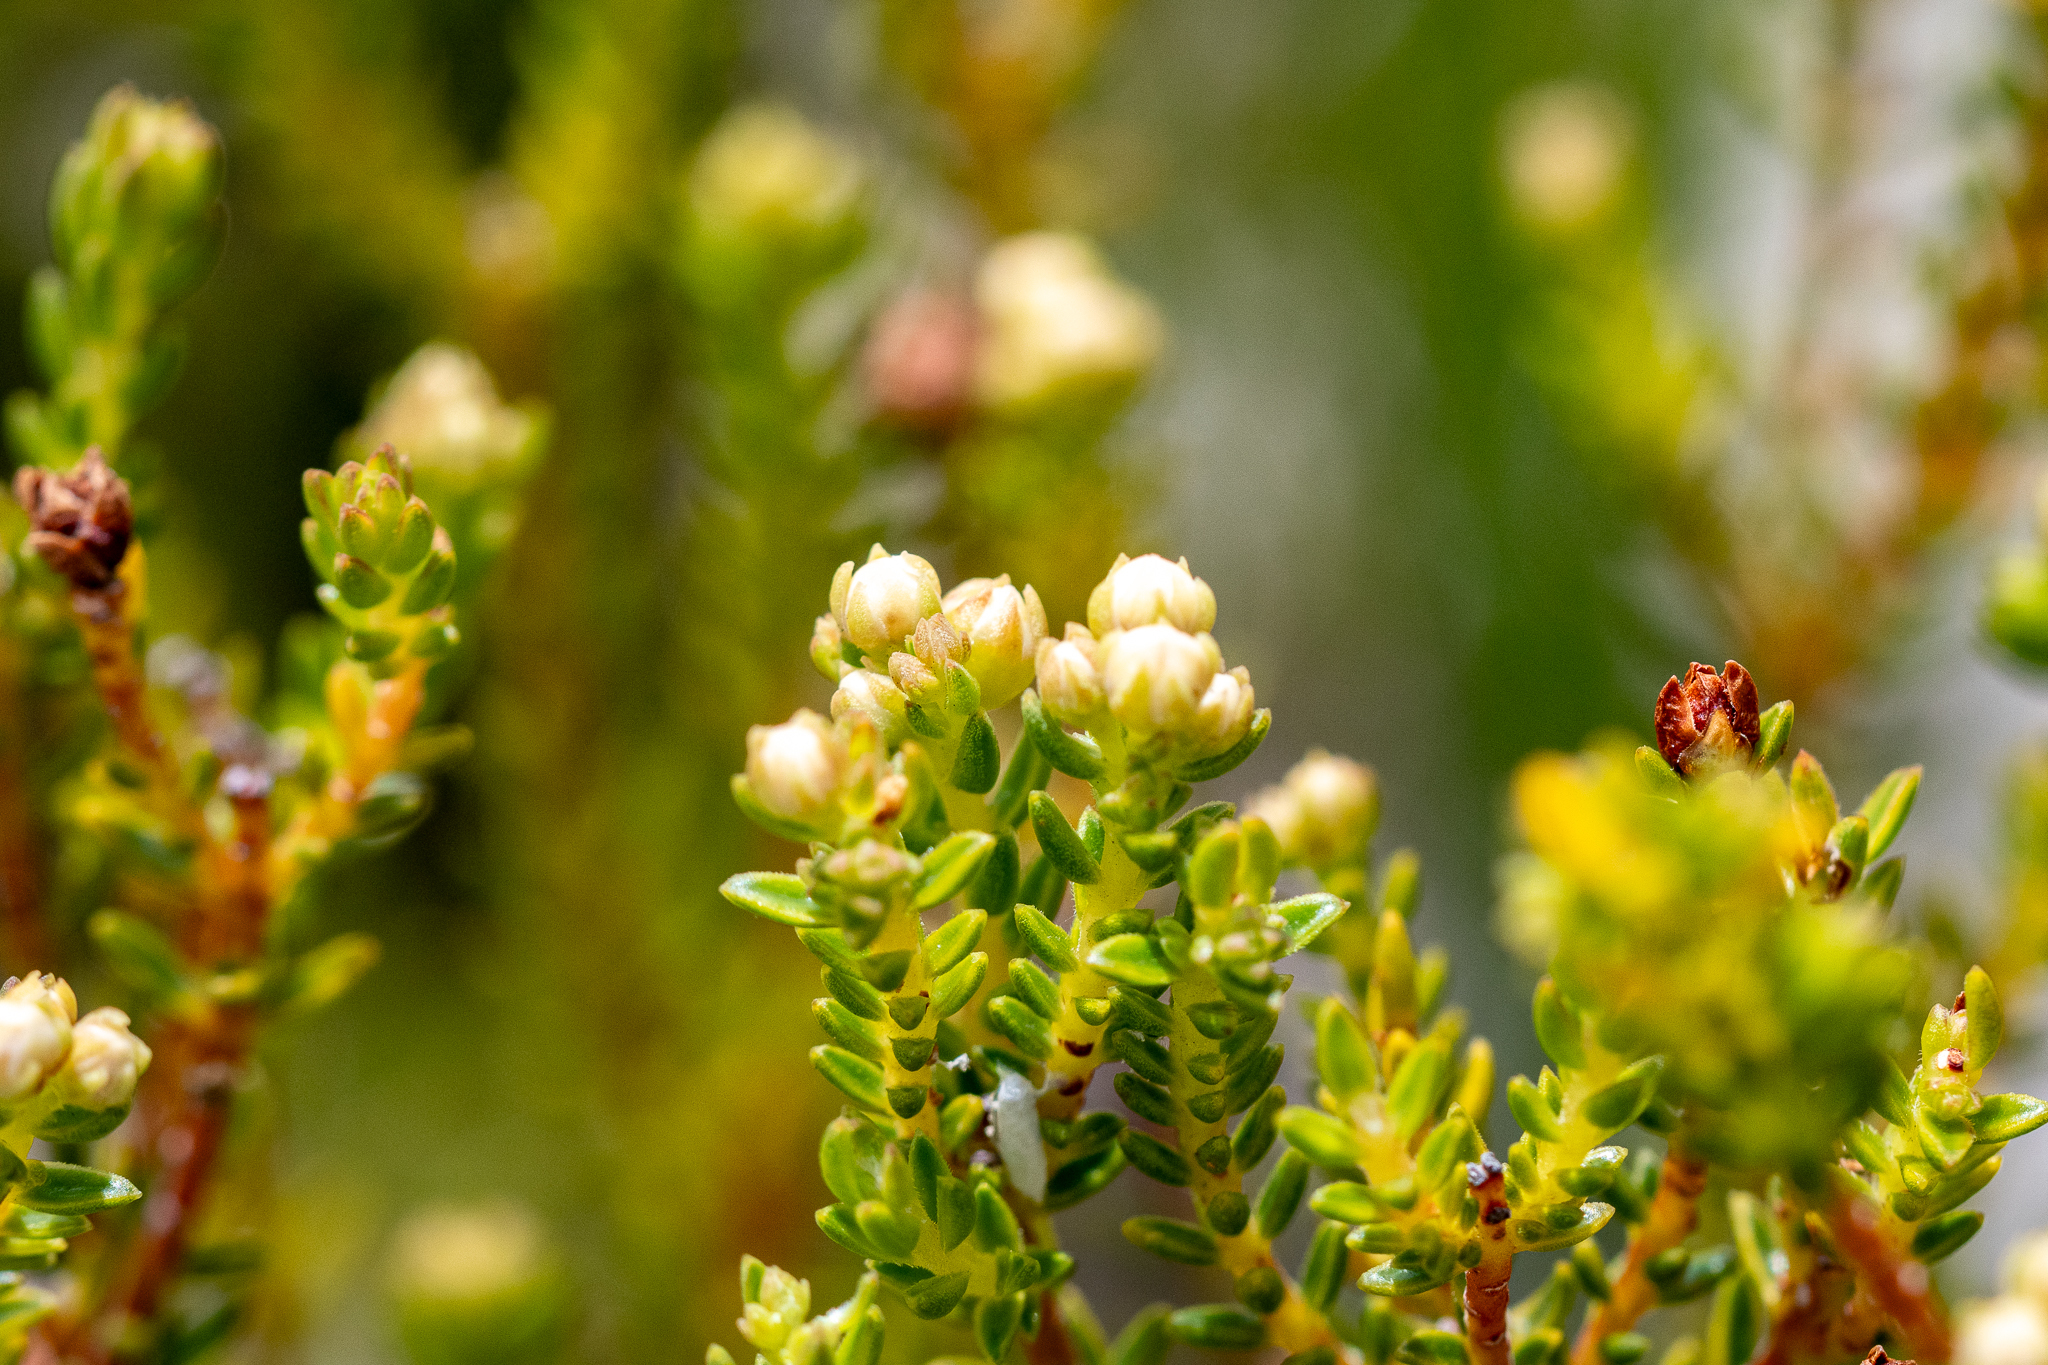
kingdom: Plantae
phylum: Tracheophyta
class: Magnoliopsida
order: Sapindales
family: Rutaceae
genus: Diosma
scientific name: Diosma oppositifolia
